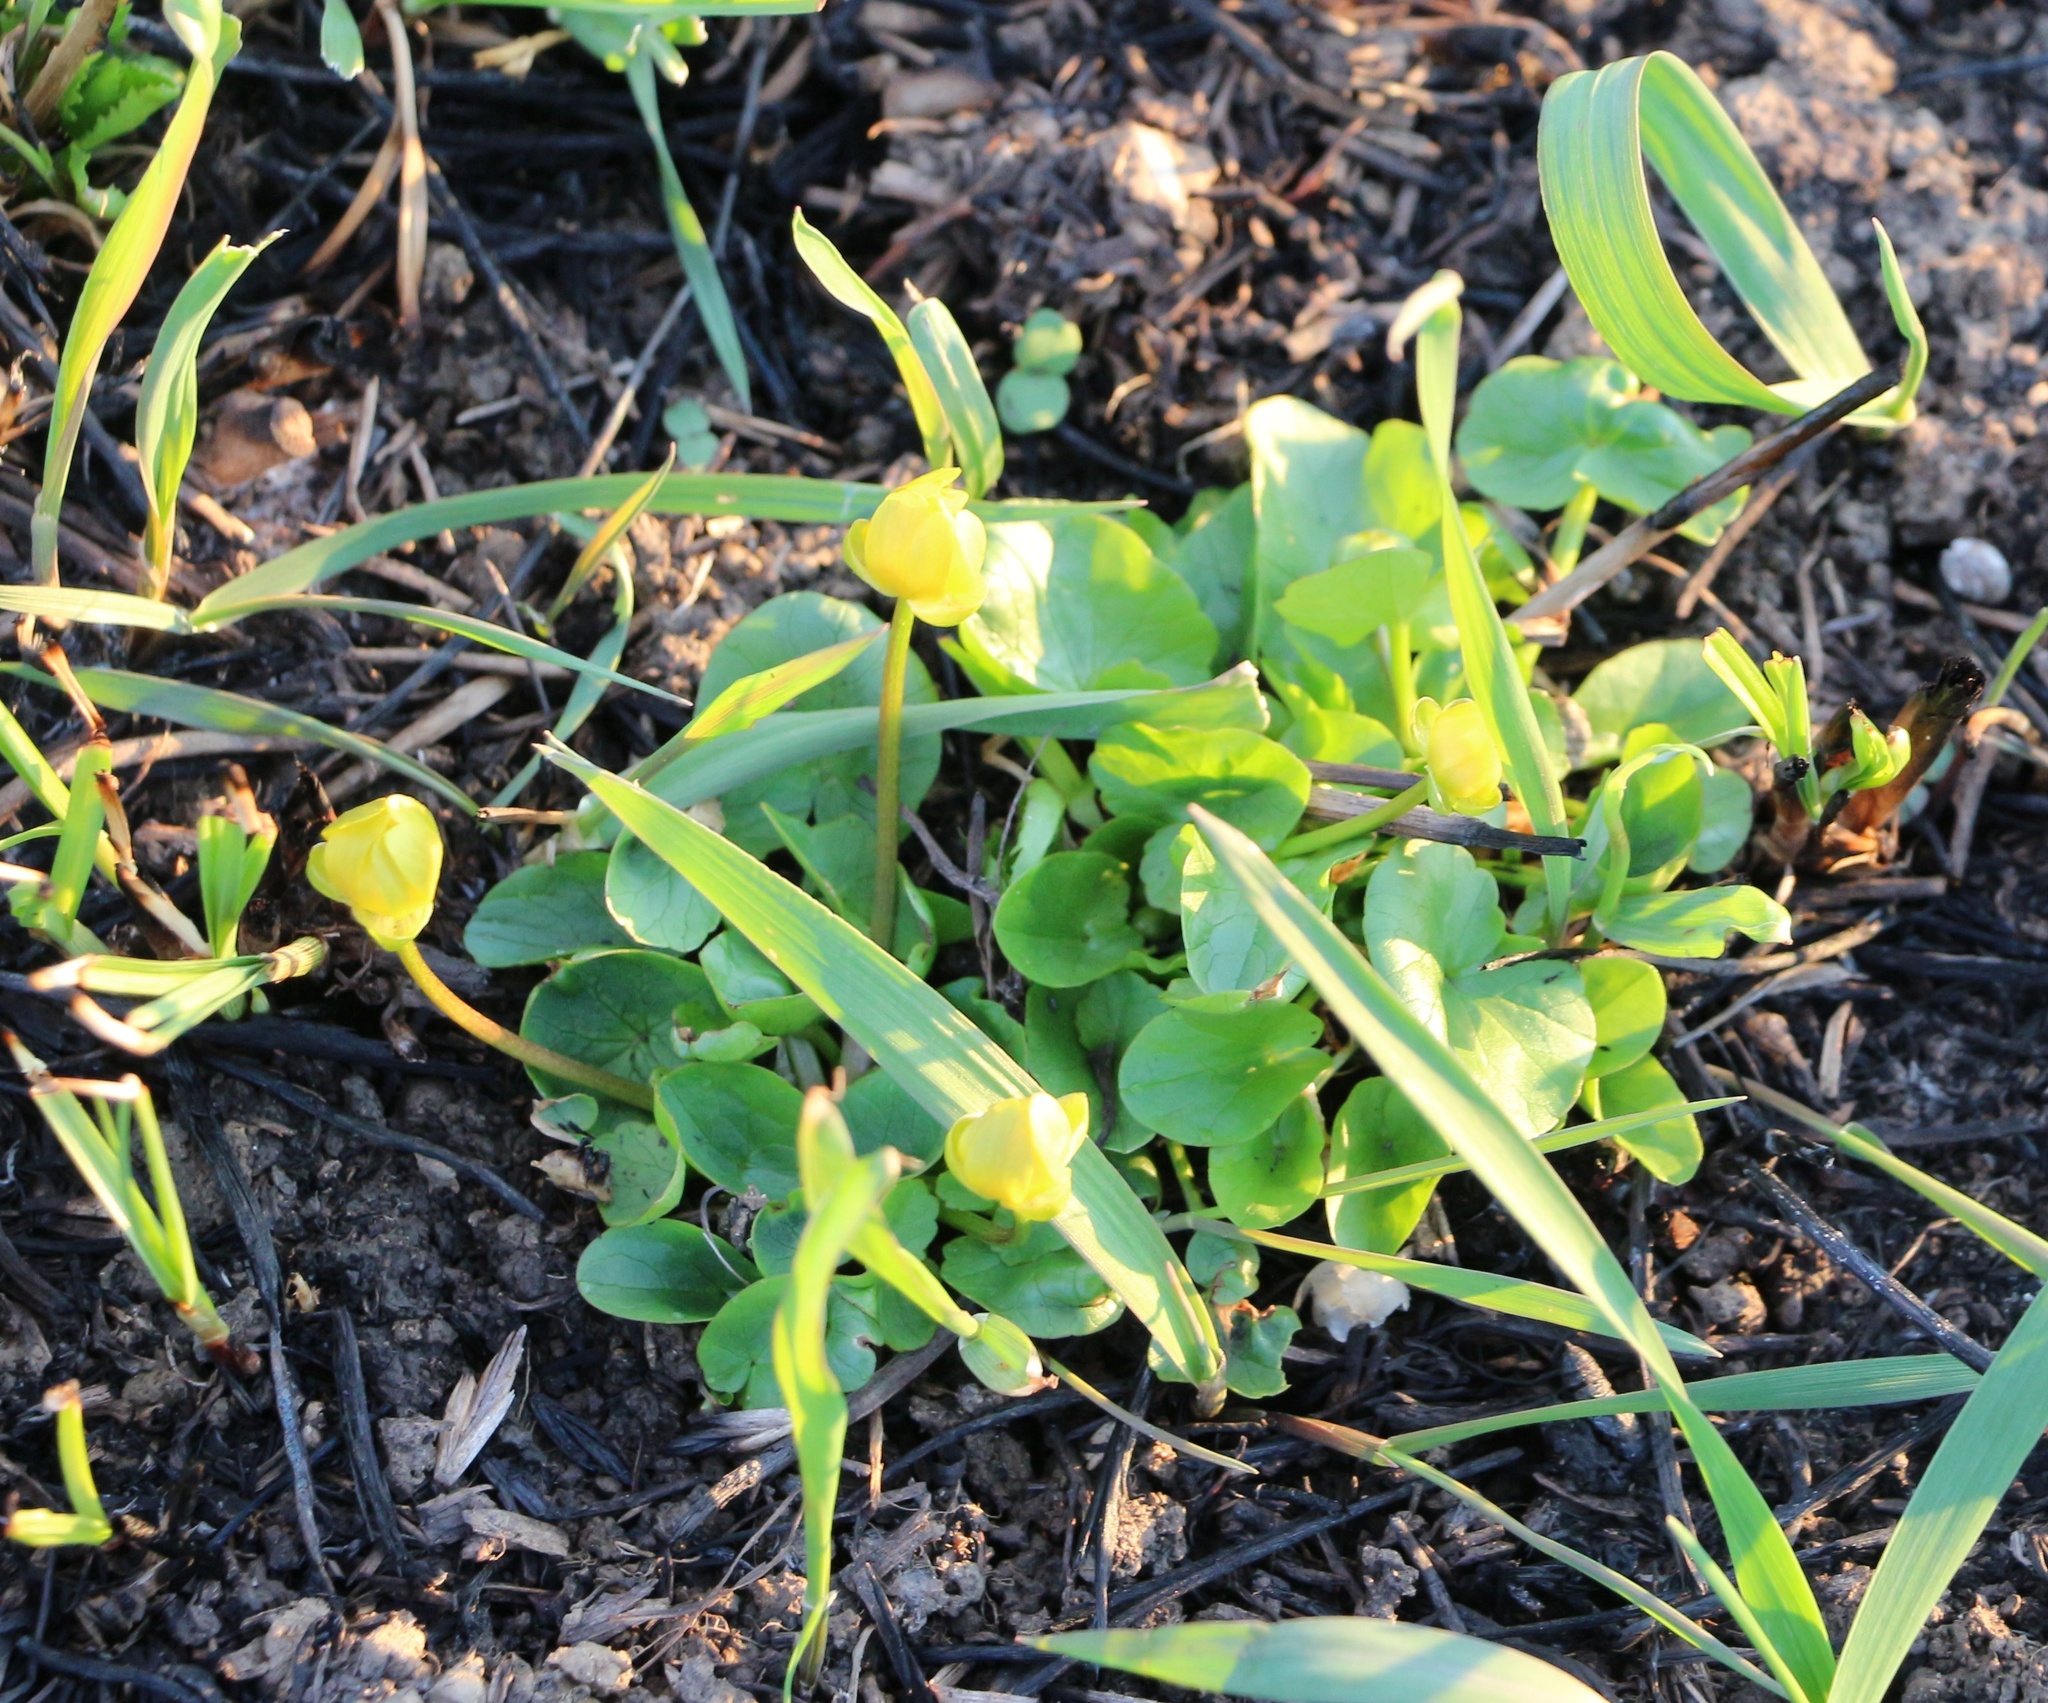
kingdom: Plantae
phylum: Tracheophyta
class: Magnoliopsida
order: Ranunculales
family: Ranunculaceae
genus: Ficaria
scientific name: Ficaria verna
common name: Lesser celandine
